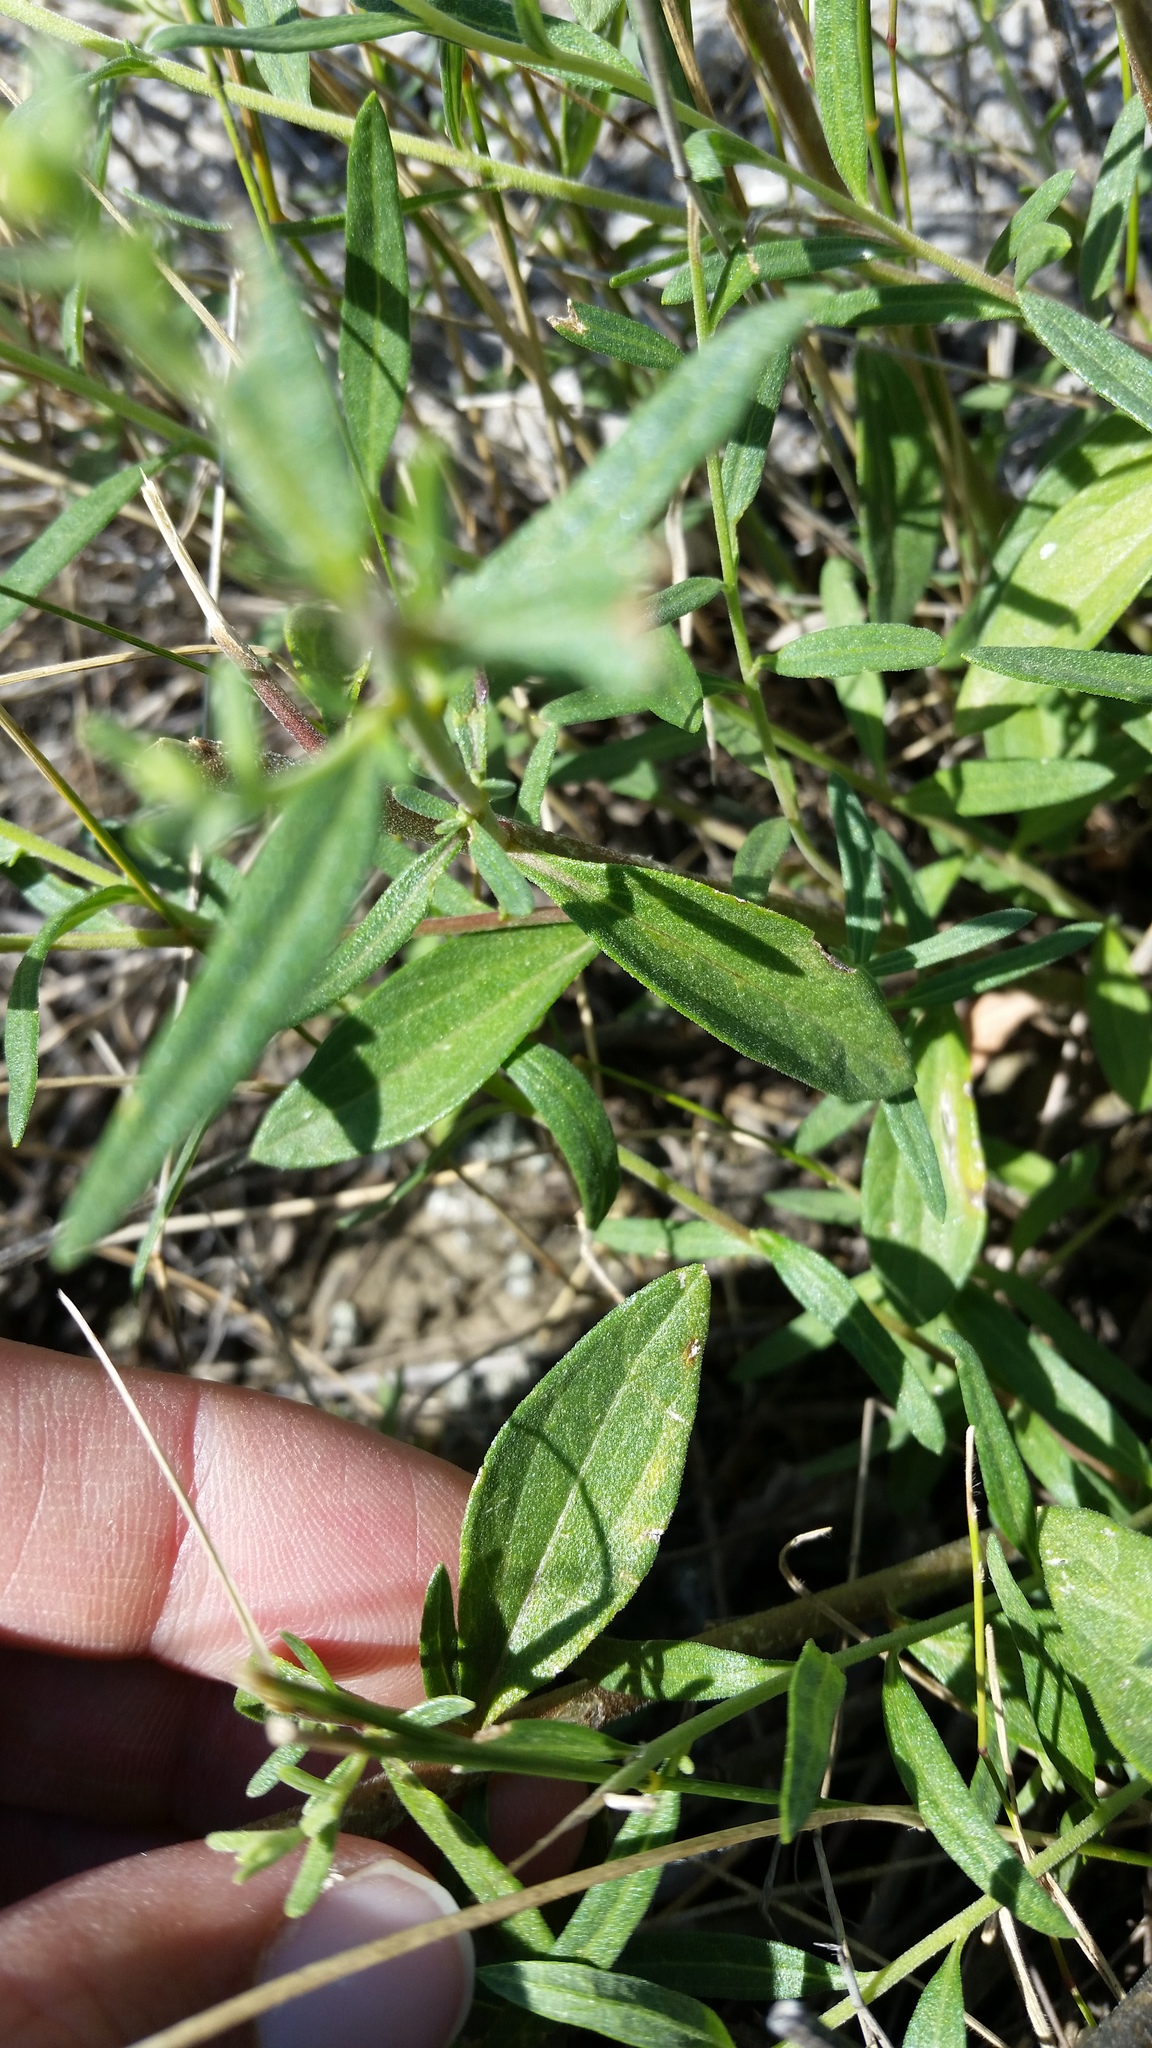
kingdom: Plantae
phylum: Tracheophyta
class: Magnoliopsida
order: Asterales
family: Asteraceae
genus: Brickellia
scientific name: Brickellia eupatorioides
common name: False boneset
